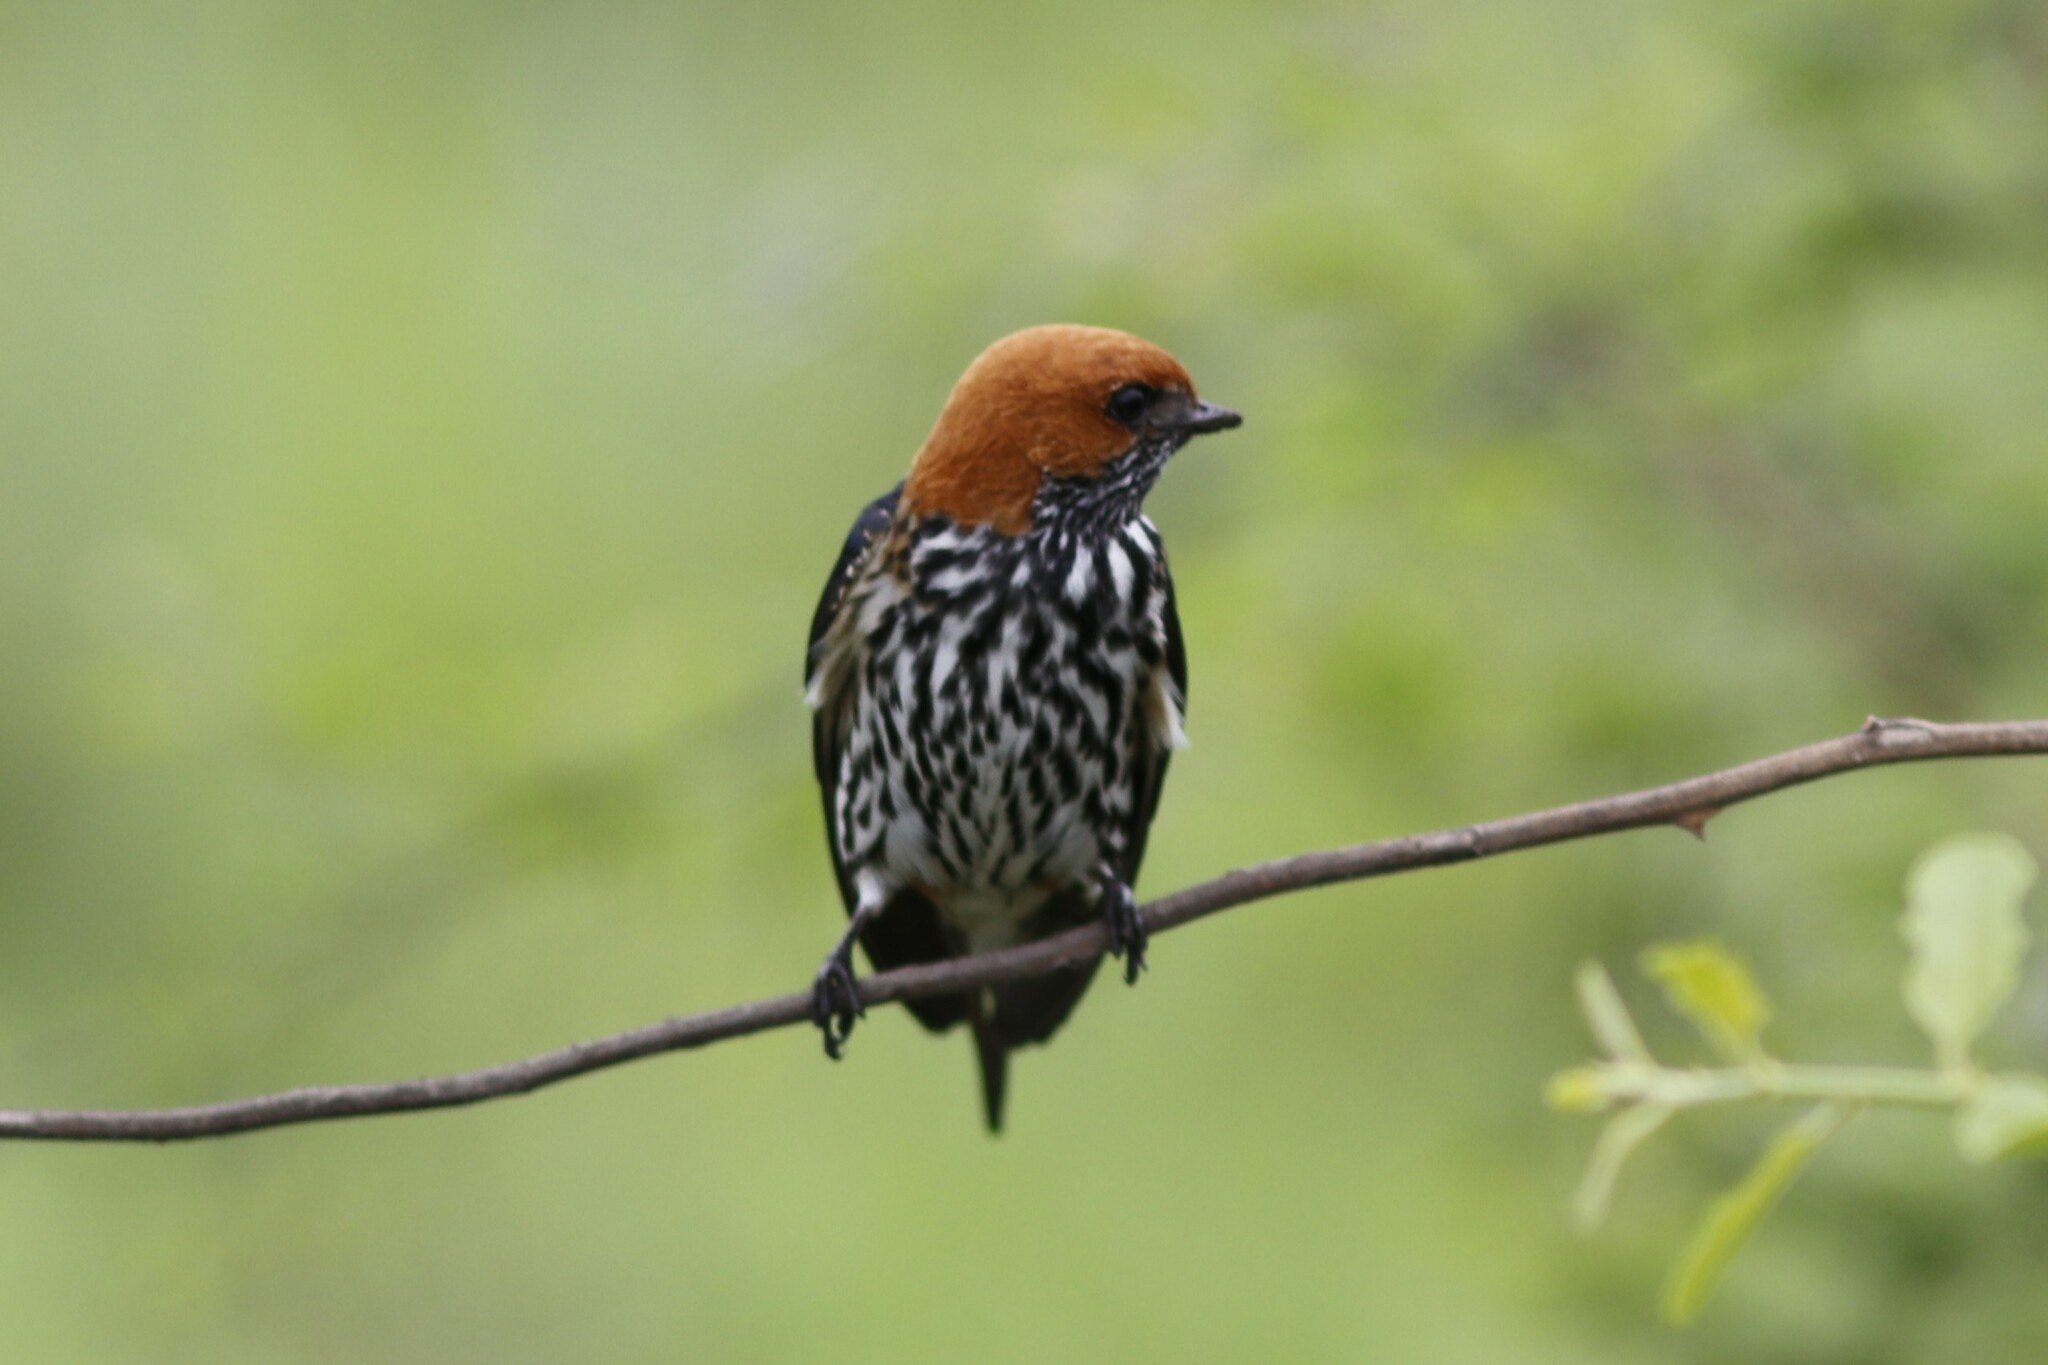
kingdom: Animalia
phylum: Chordata
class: Aves
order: Passeriformes
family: Hirundinidae
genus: Cecropis
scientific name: Cecropis abyssinica
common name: Lesser striped-swallow
